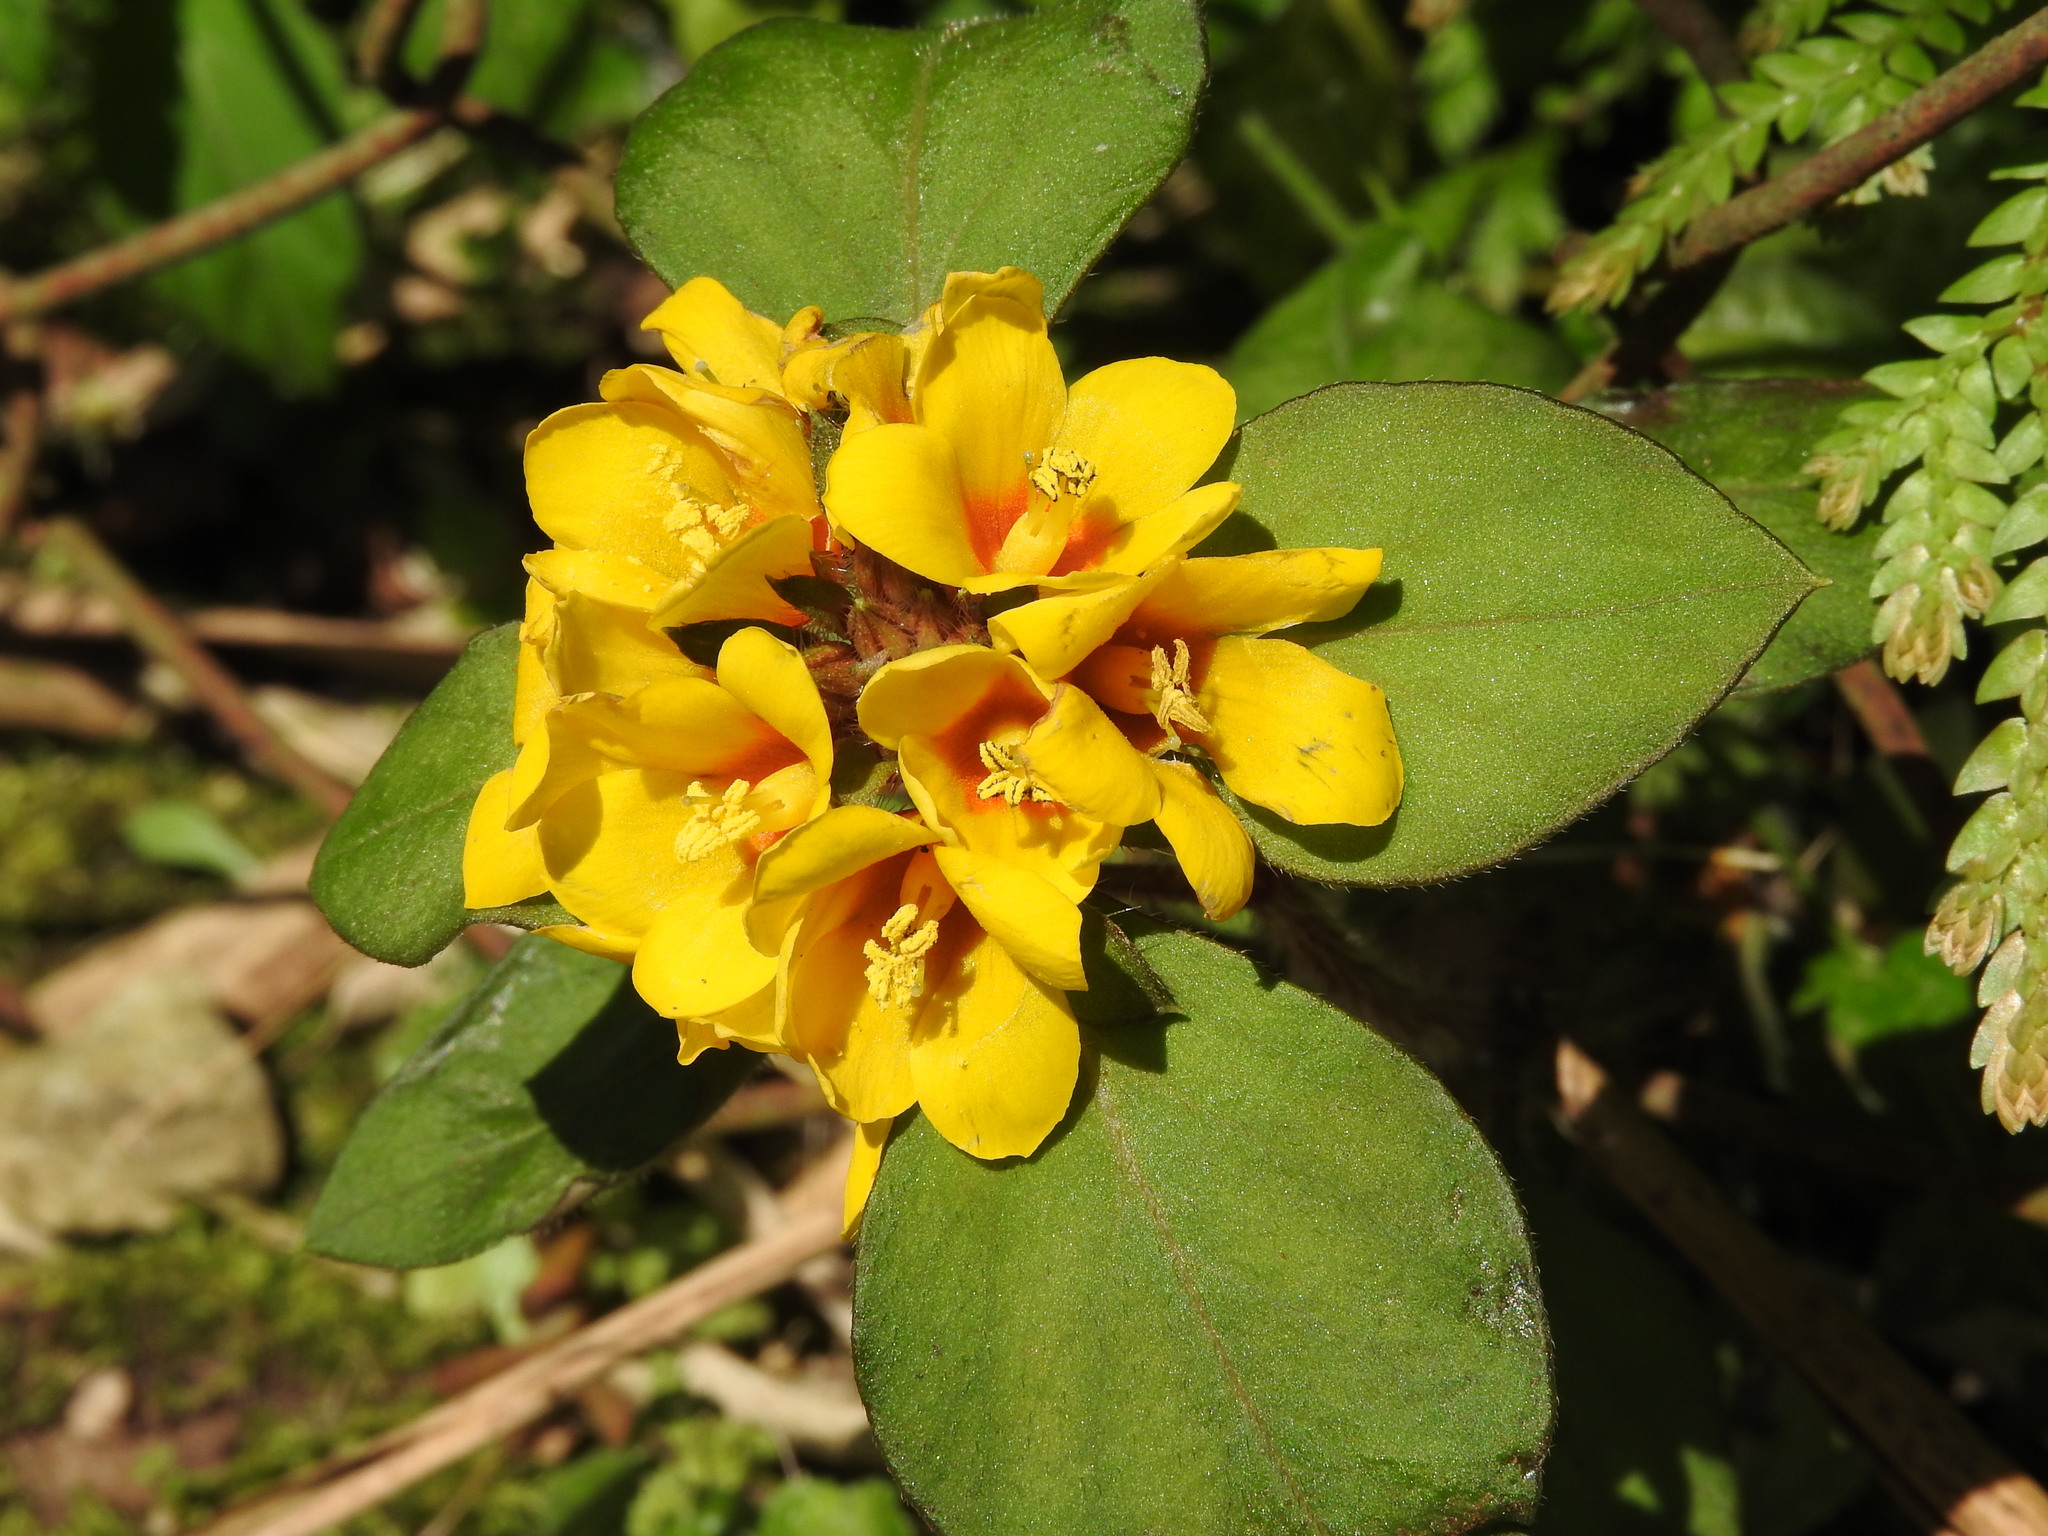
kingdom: Plantae
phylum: Tracheophyta
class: Magnoliopsida
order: Ericales
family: Primulaceae
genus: Lysimachia
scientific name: Lysimachia congestiflora
